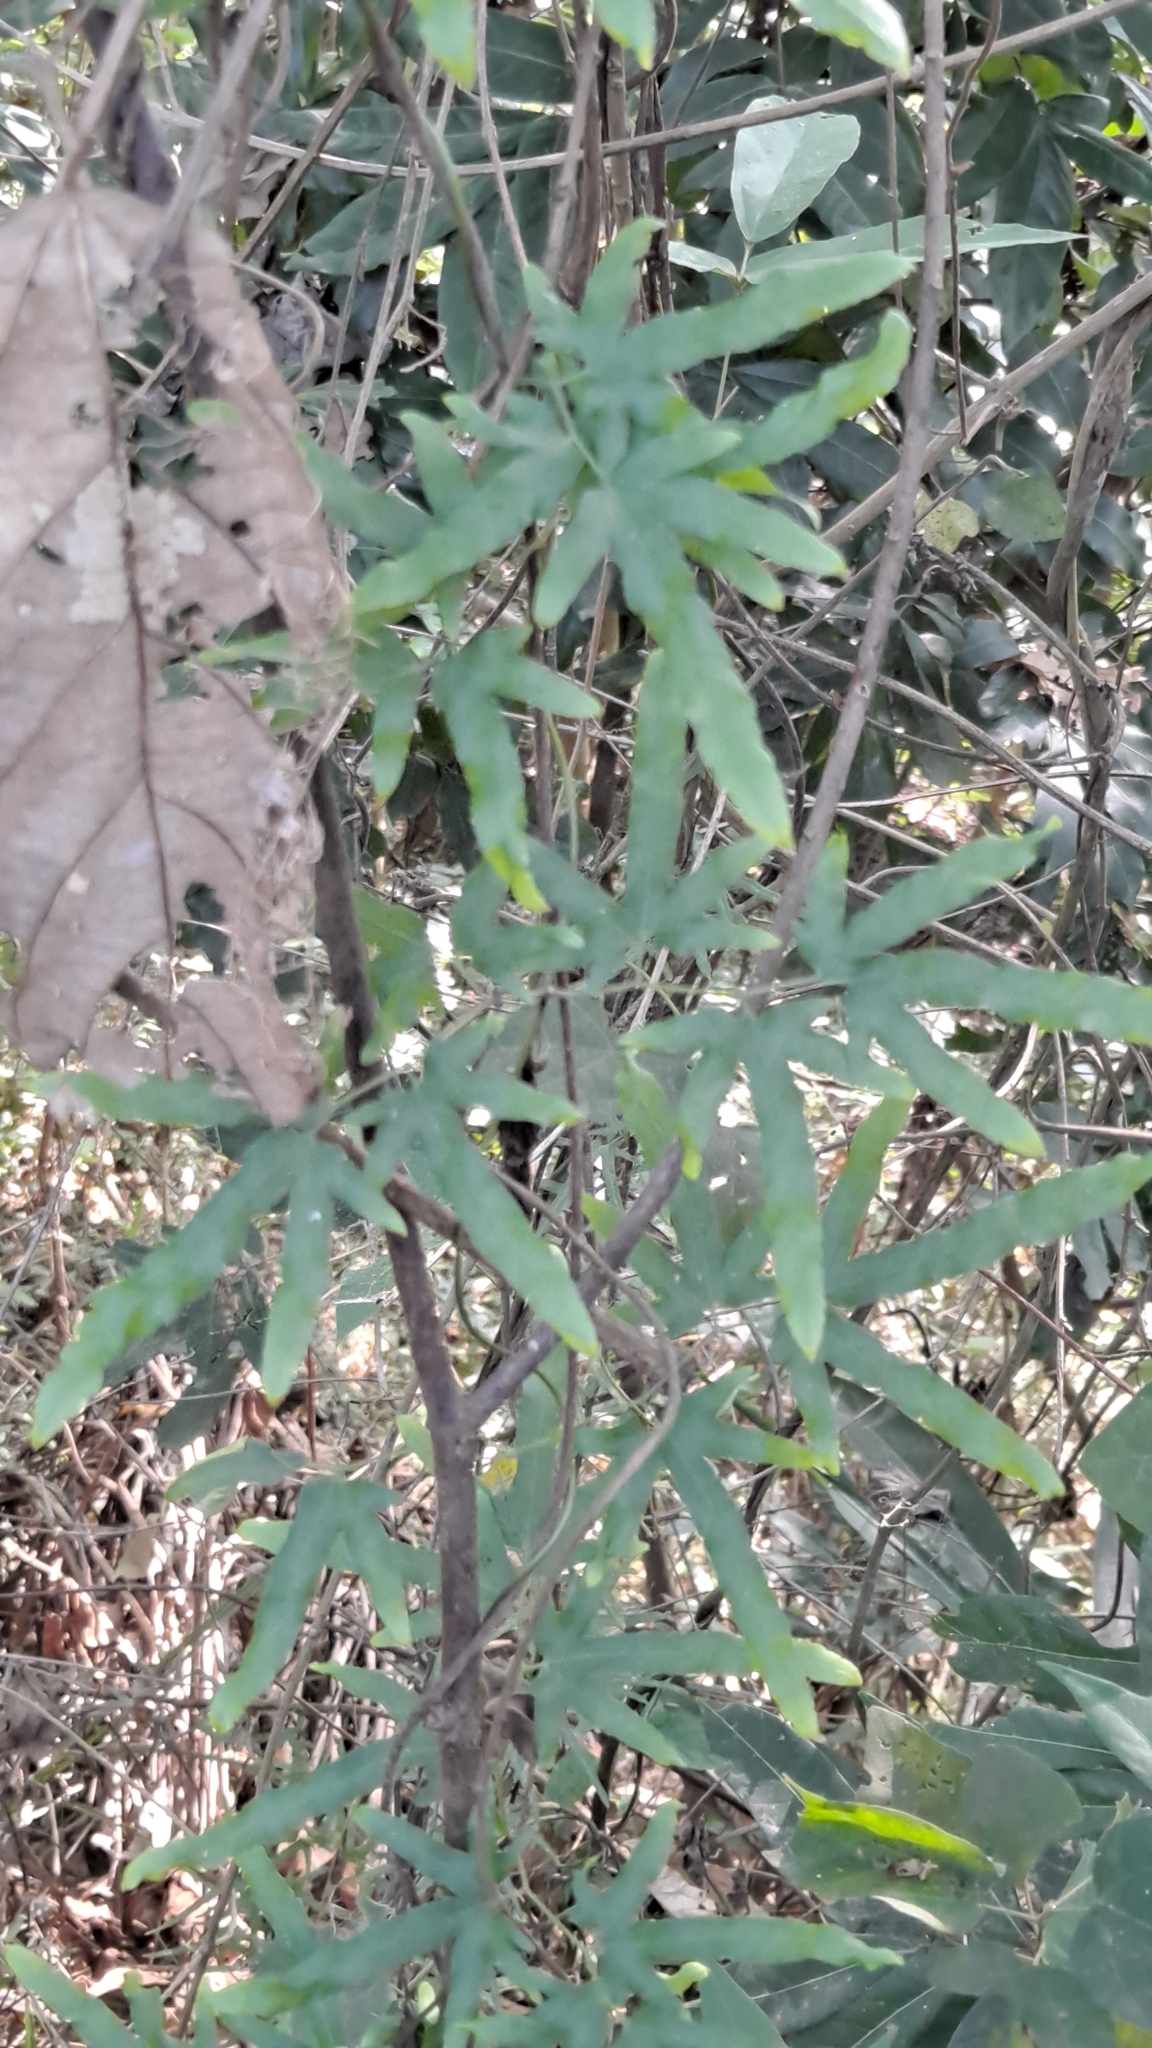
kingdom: Plantae
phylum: Tracheophyta
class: Polypodiopsida
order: Schizaeales
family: Lygodiaceae
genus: Lygodium
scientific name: Lygodium japonicum
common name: Japanese climbing fern
